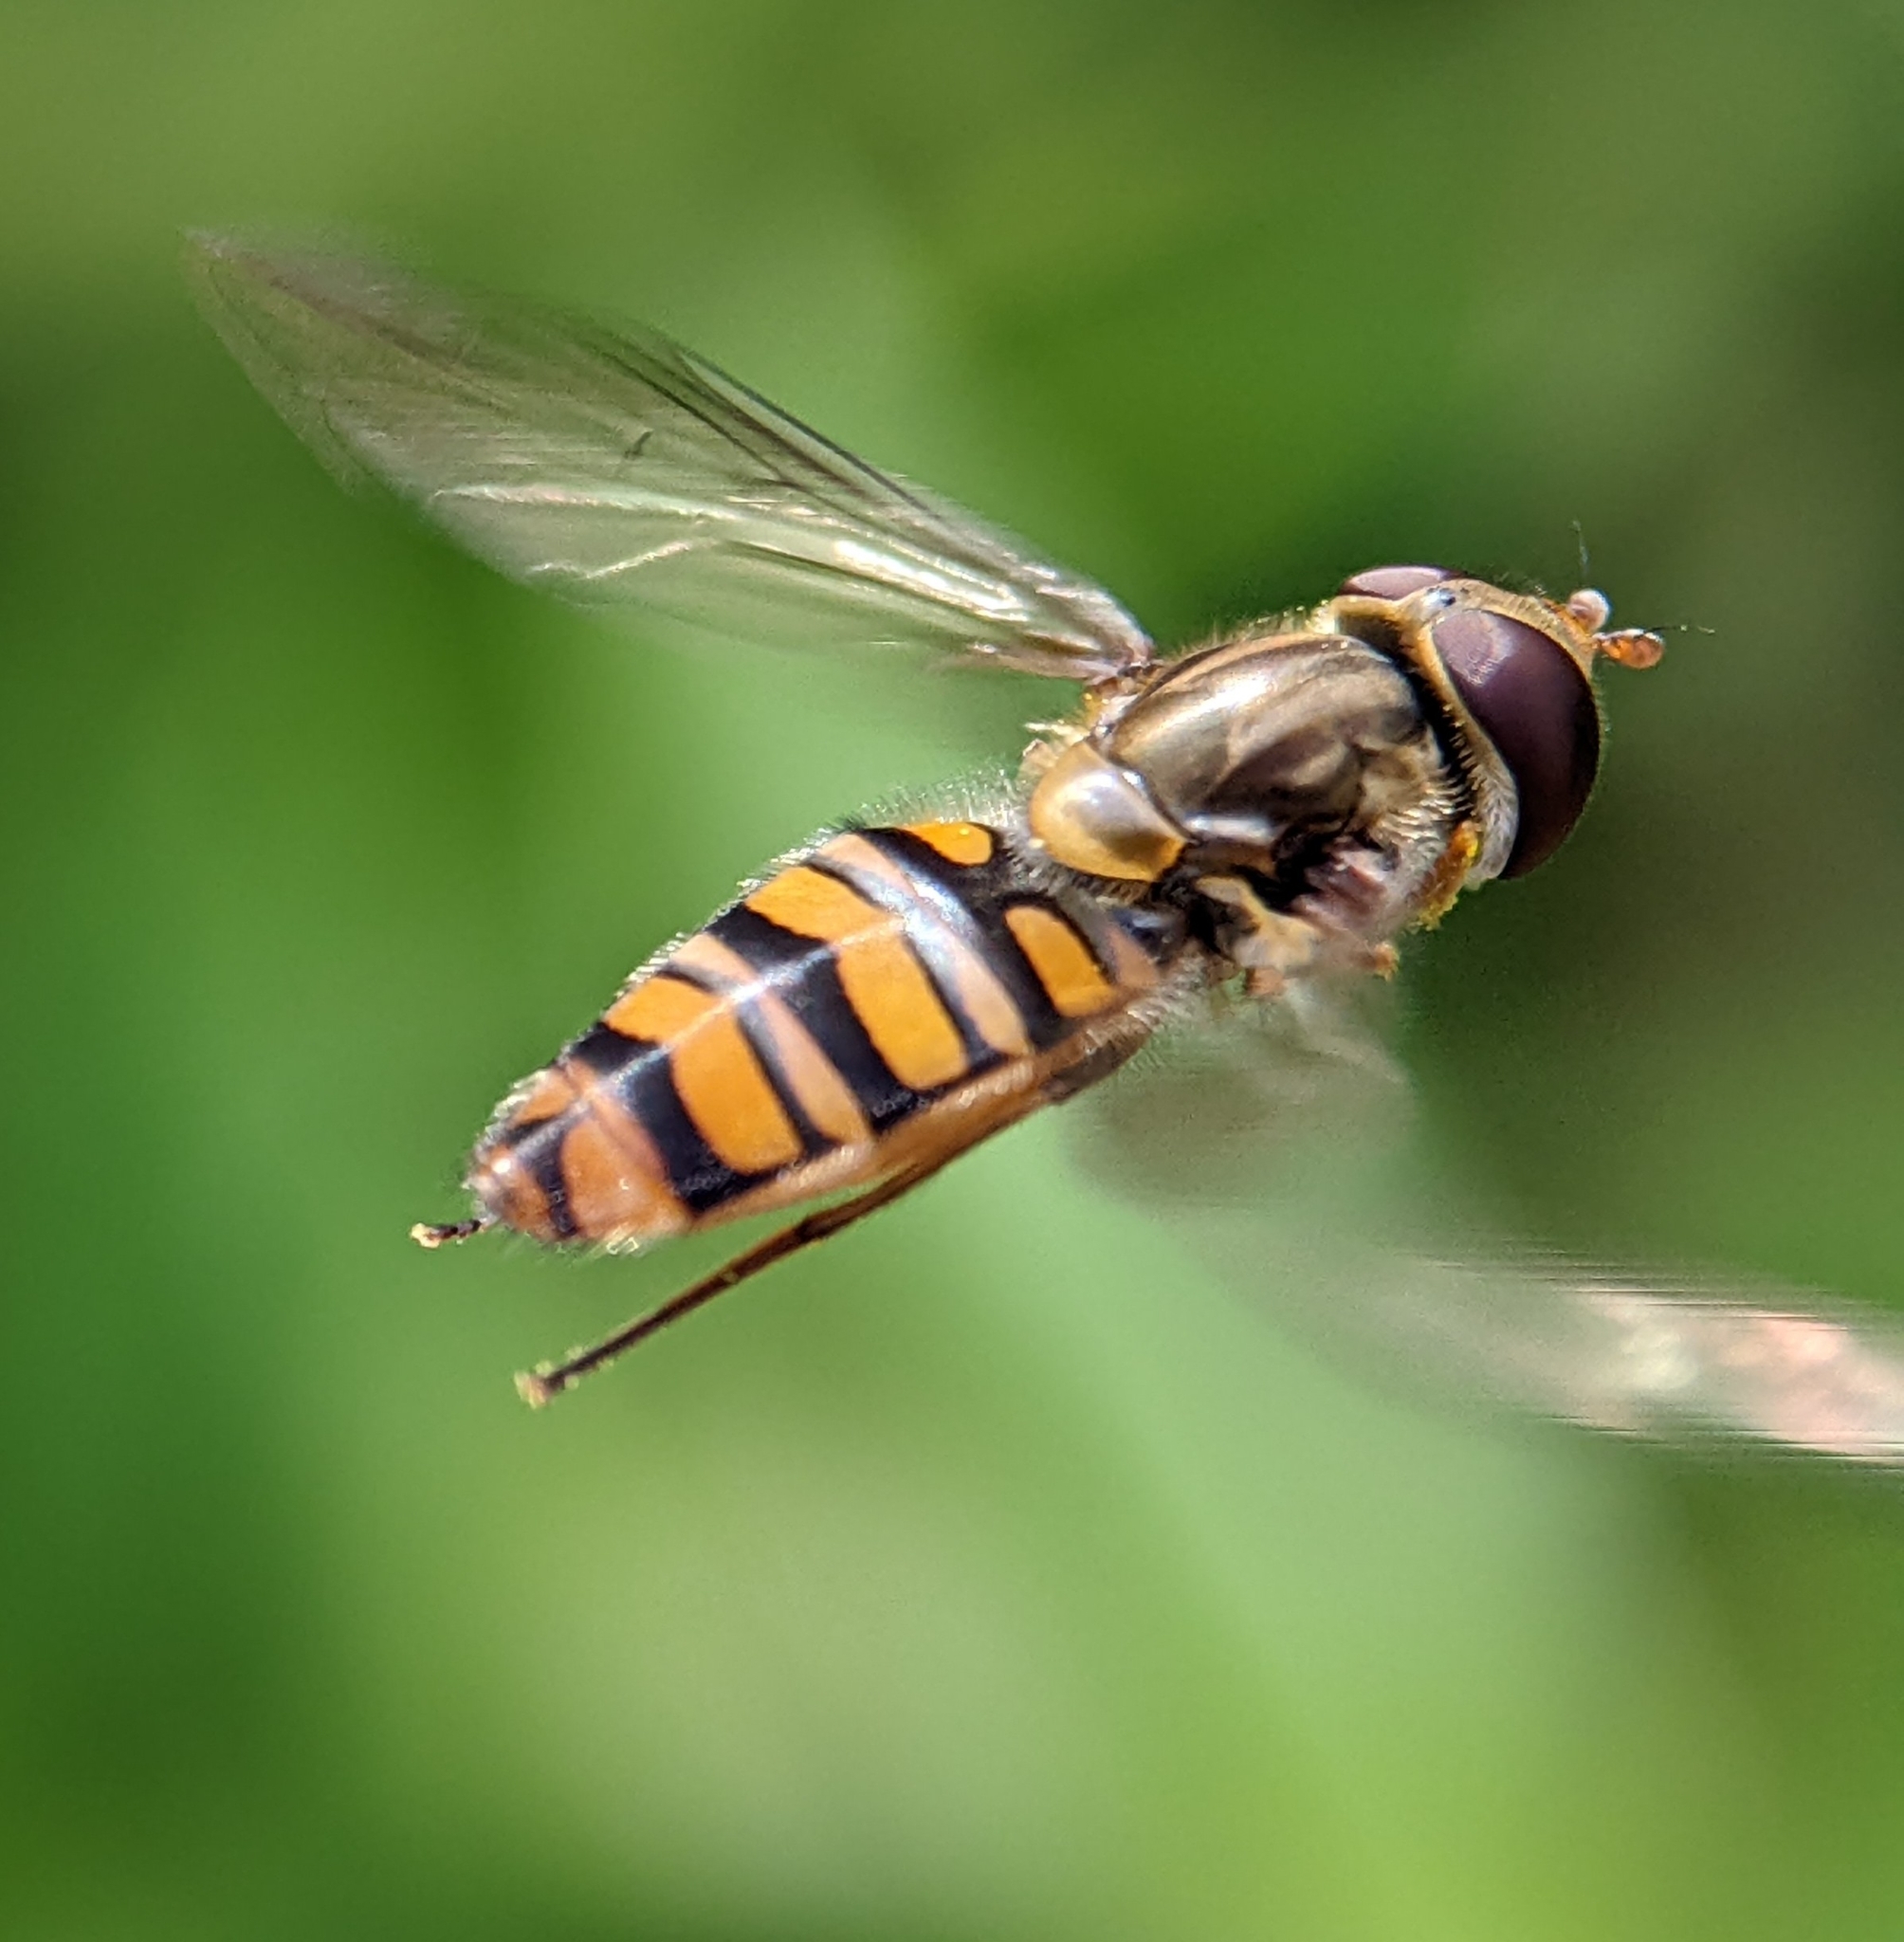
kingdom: Animalia
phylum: Arthropoda
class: Insecta
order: Diptera
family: Syrphidae
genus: Episyrphus
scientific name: Episyrphus balteatus
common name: Marmalade hoverfly
